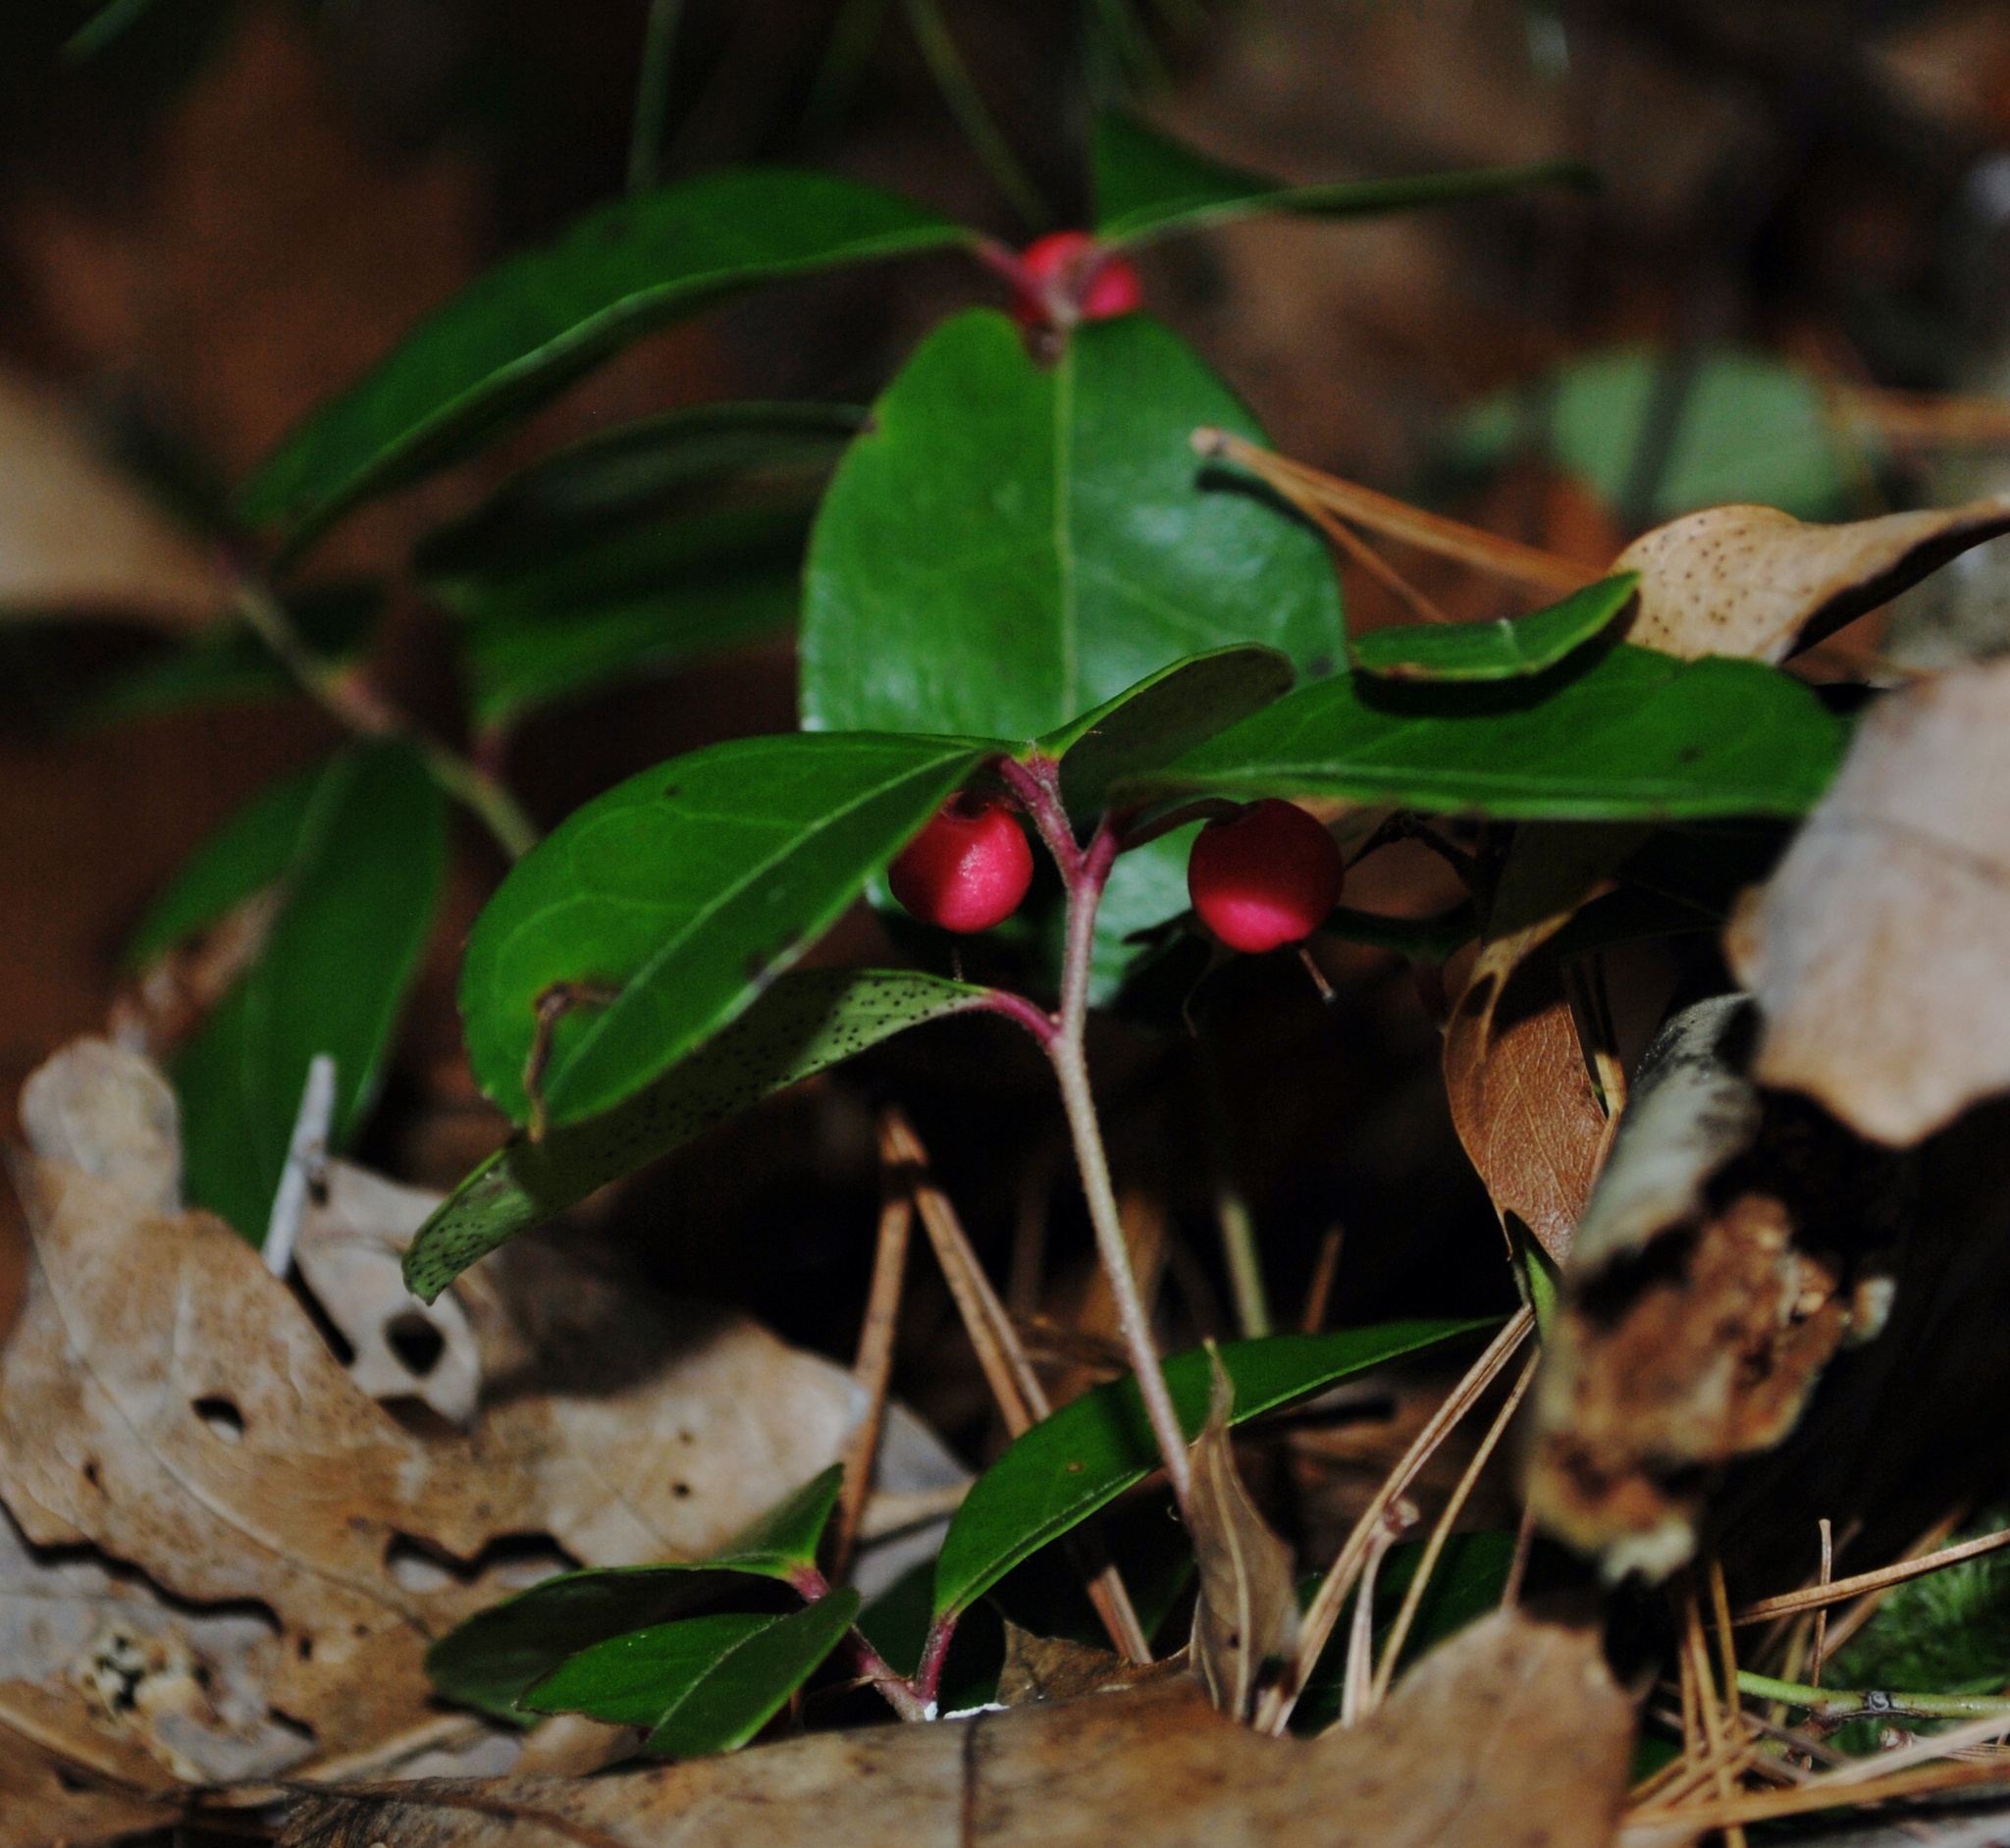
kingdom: Plantae
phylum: Tracheophyta
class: Magnoliopsida
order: Ericales
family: Ericaceae
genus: Gaultheria
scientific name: Gaultheria procumbens
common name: Checkerberry
